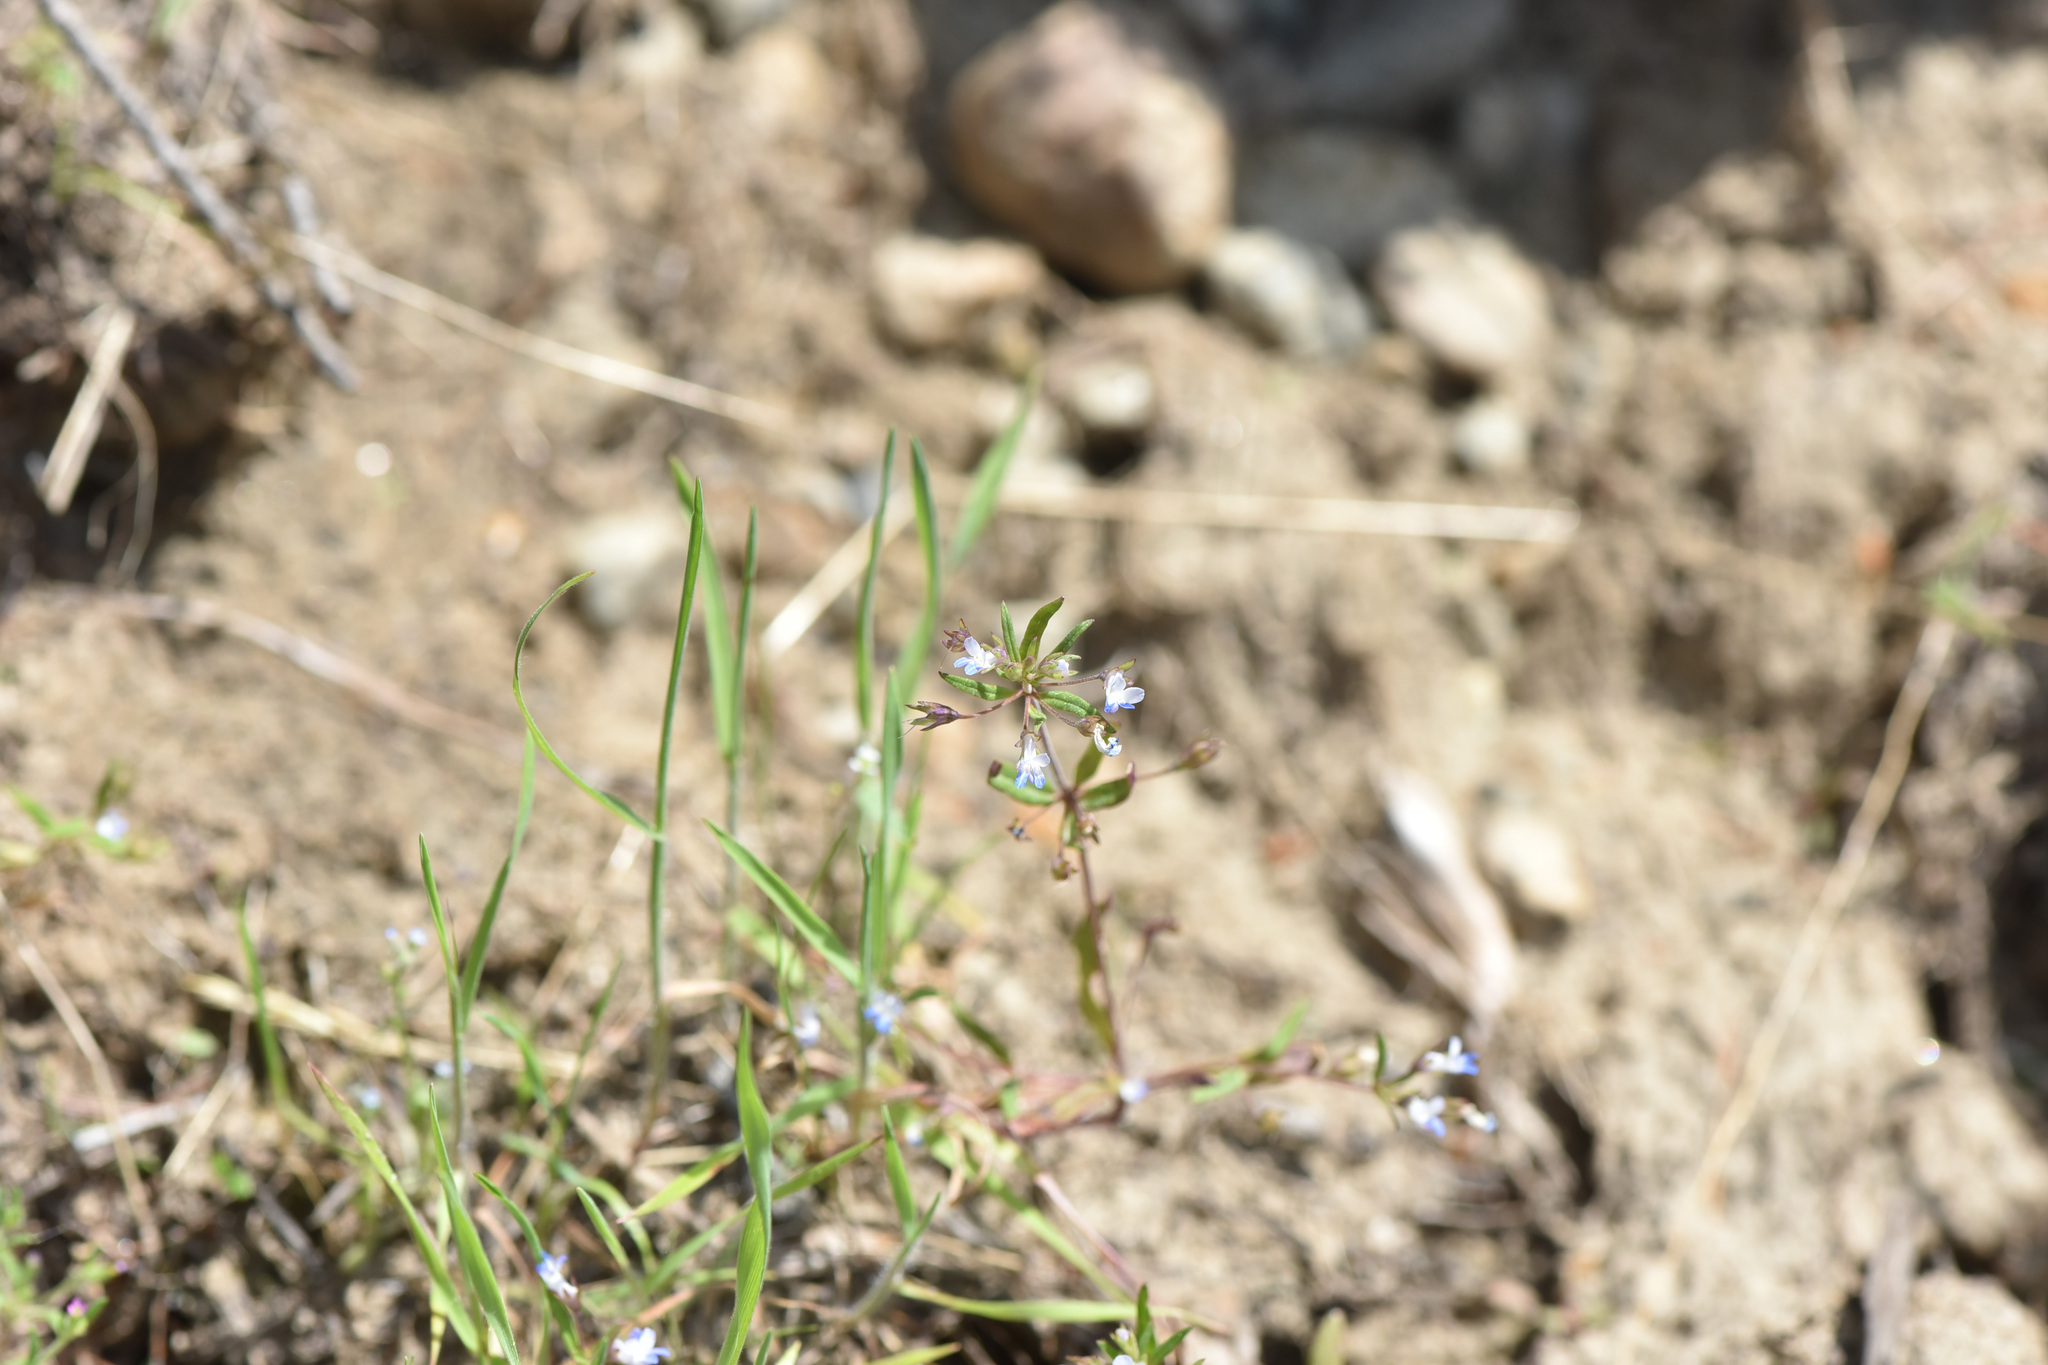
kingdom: Plantae
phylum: Tracheophyta
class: Magnoliopsida
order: Lamiales
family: Plantaginaceae
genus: Collinsia
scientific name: Collinsia parviflora
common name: Blue-lips
